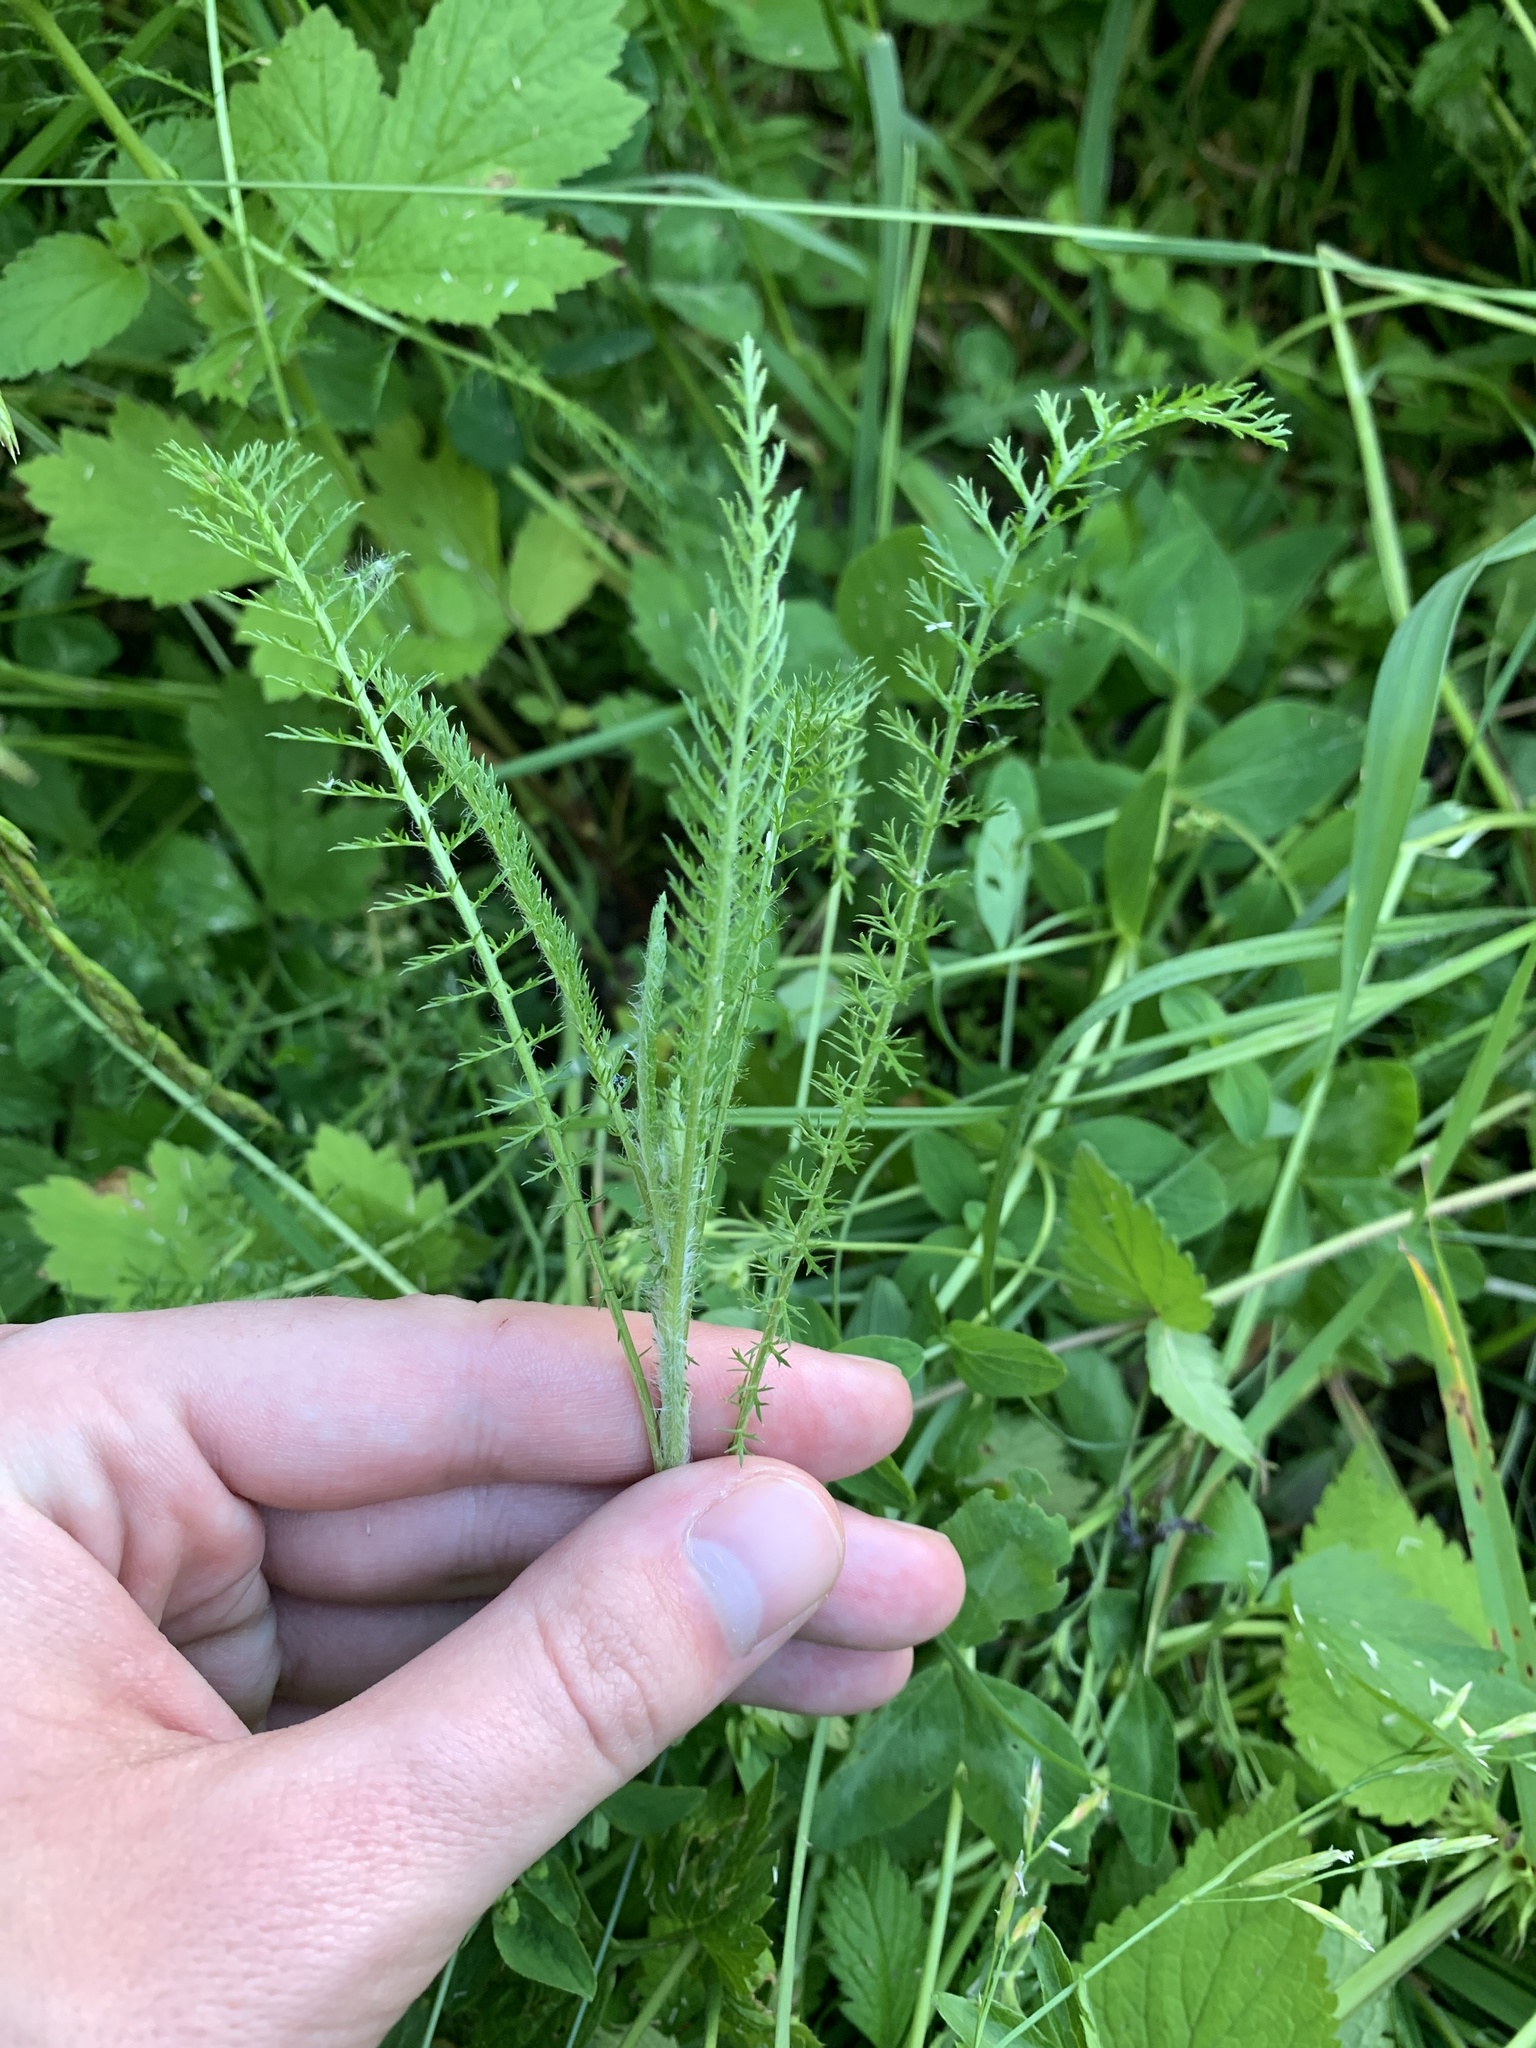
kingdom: Plantae
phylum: Tracheophyta
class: Magnoliopsida
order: Asterales
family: Asteraceae
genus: Achillea
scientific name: Achillea millefolium
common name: Yarrow
